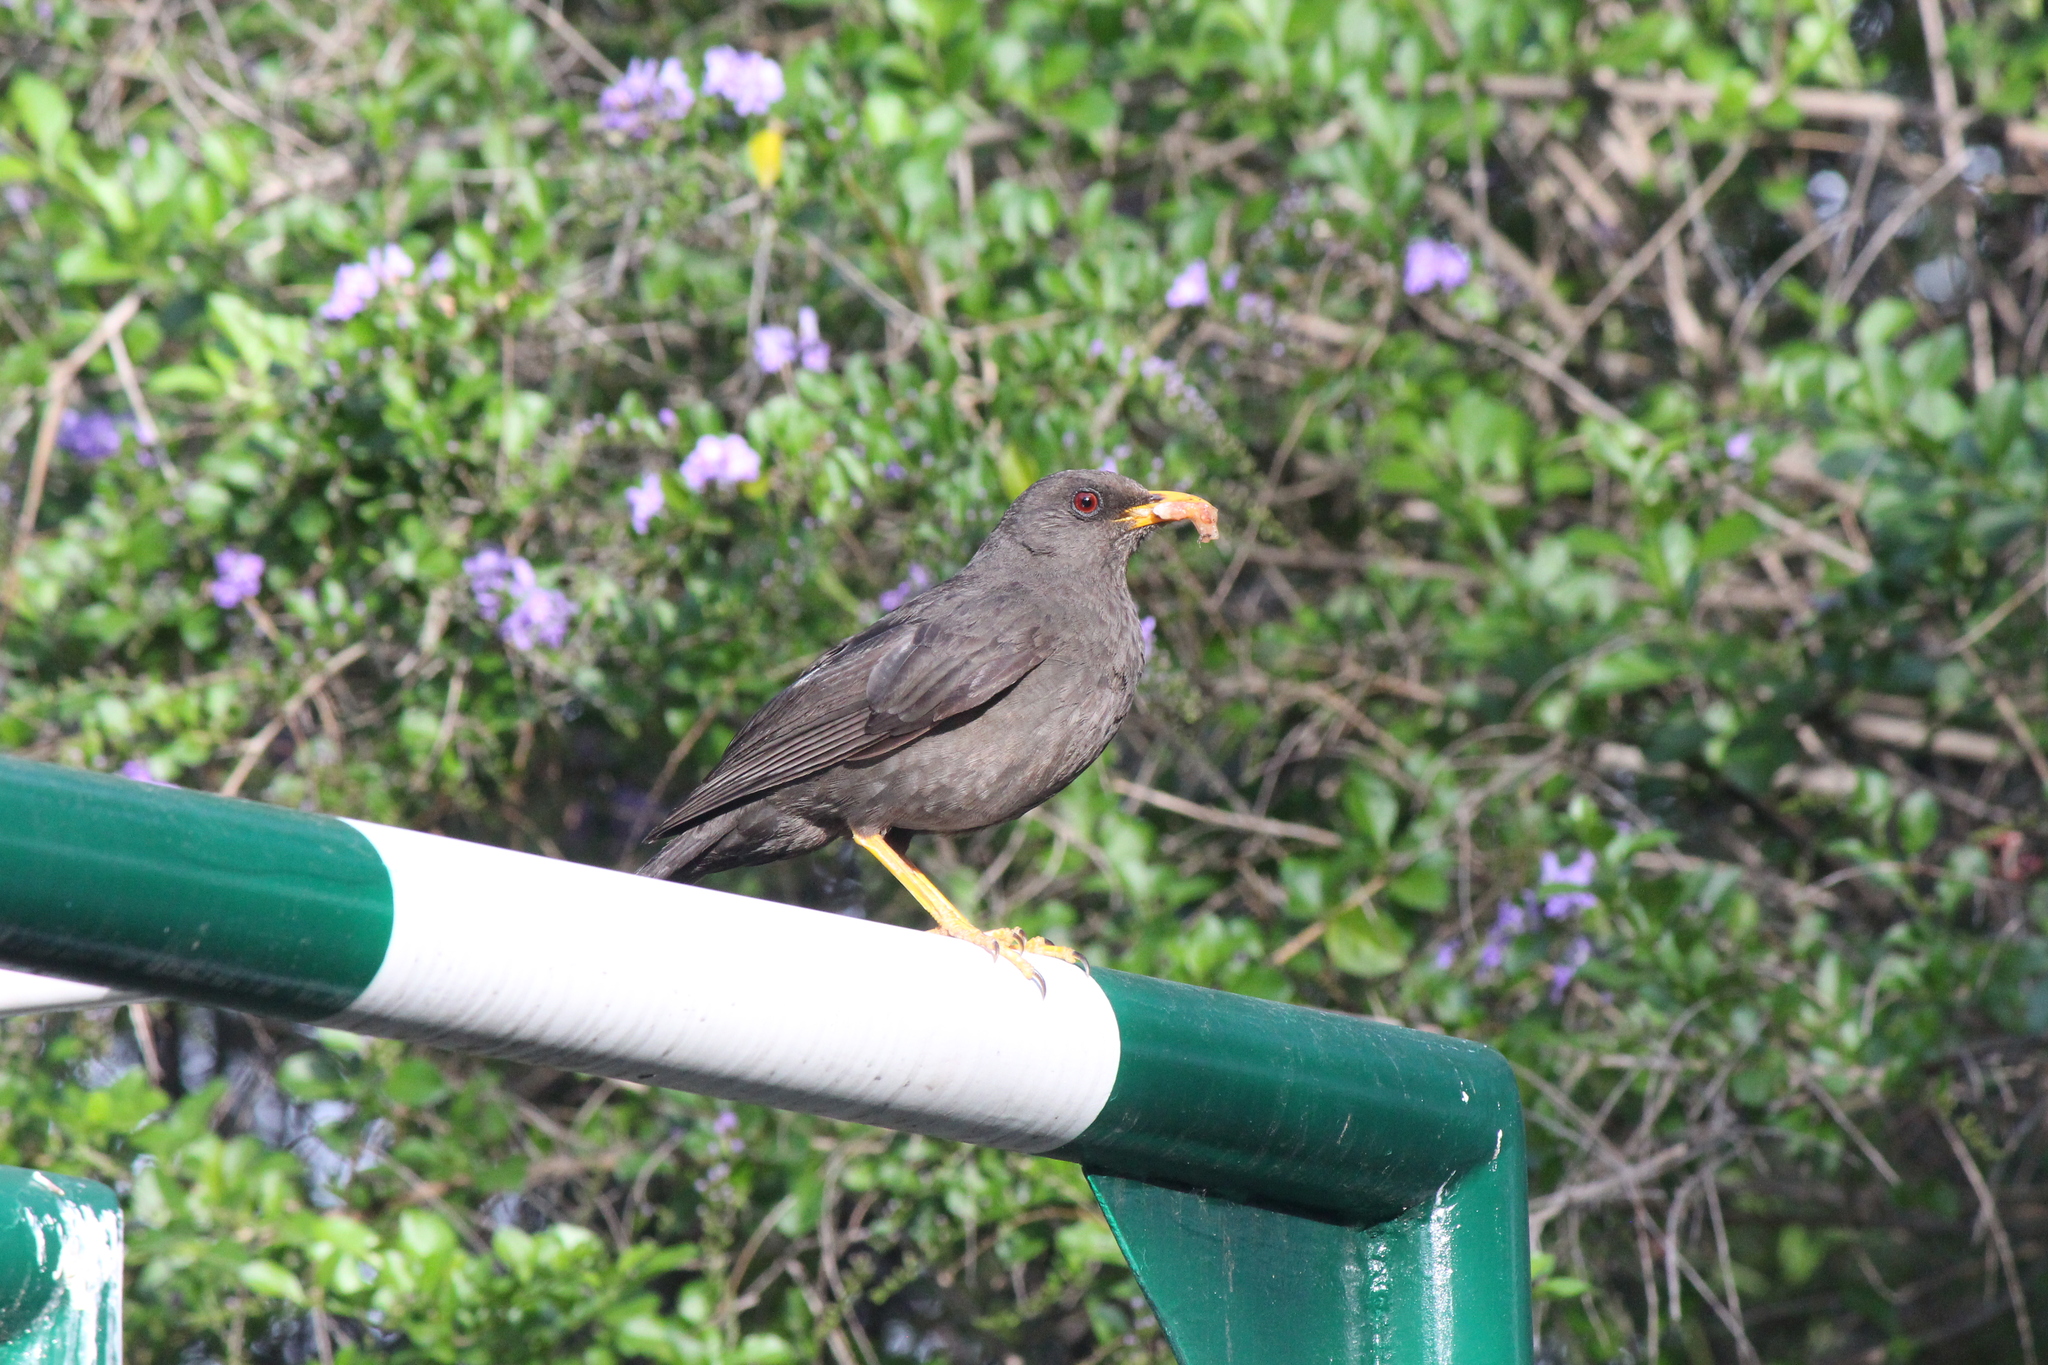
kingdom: Animalia
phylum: Chordata
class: Aves
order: Passeriformes
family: Turdidae
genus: Turdus
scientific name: Turdus fuscater
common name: Great thrush
